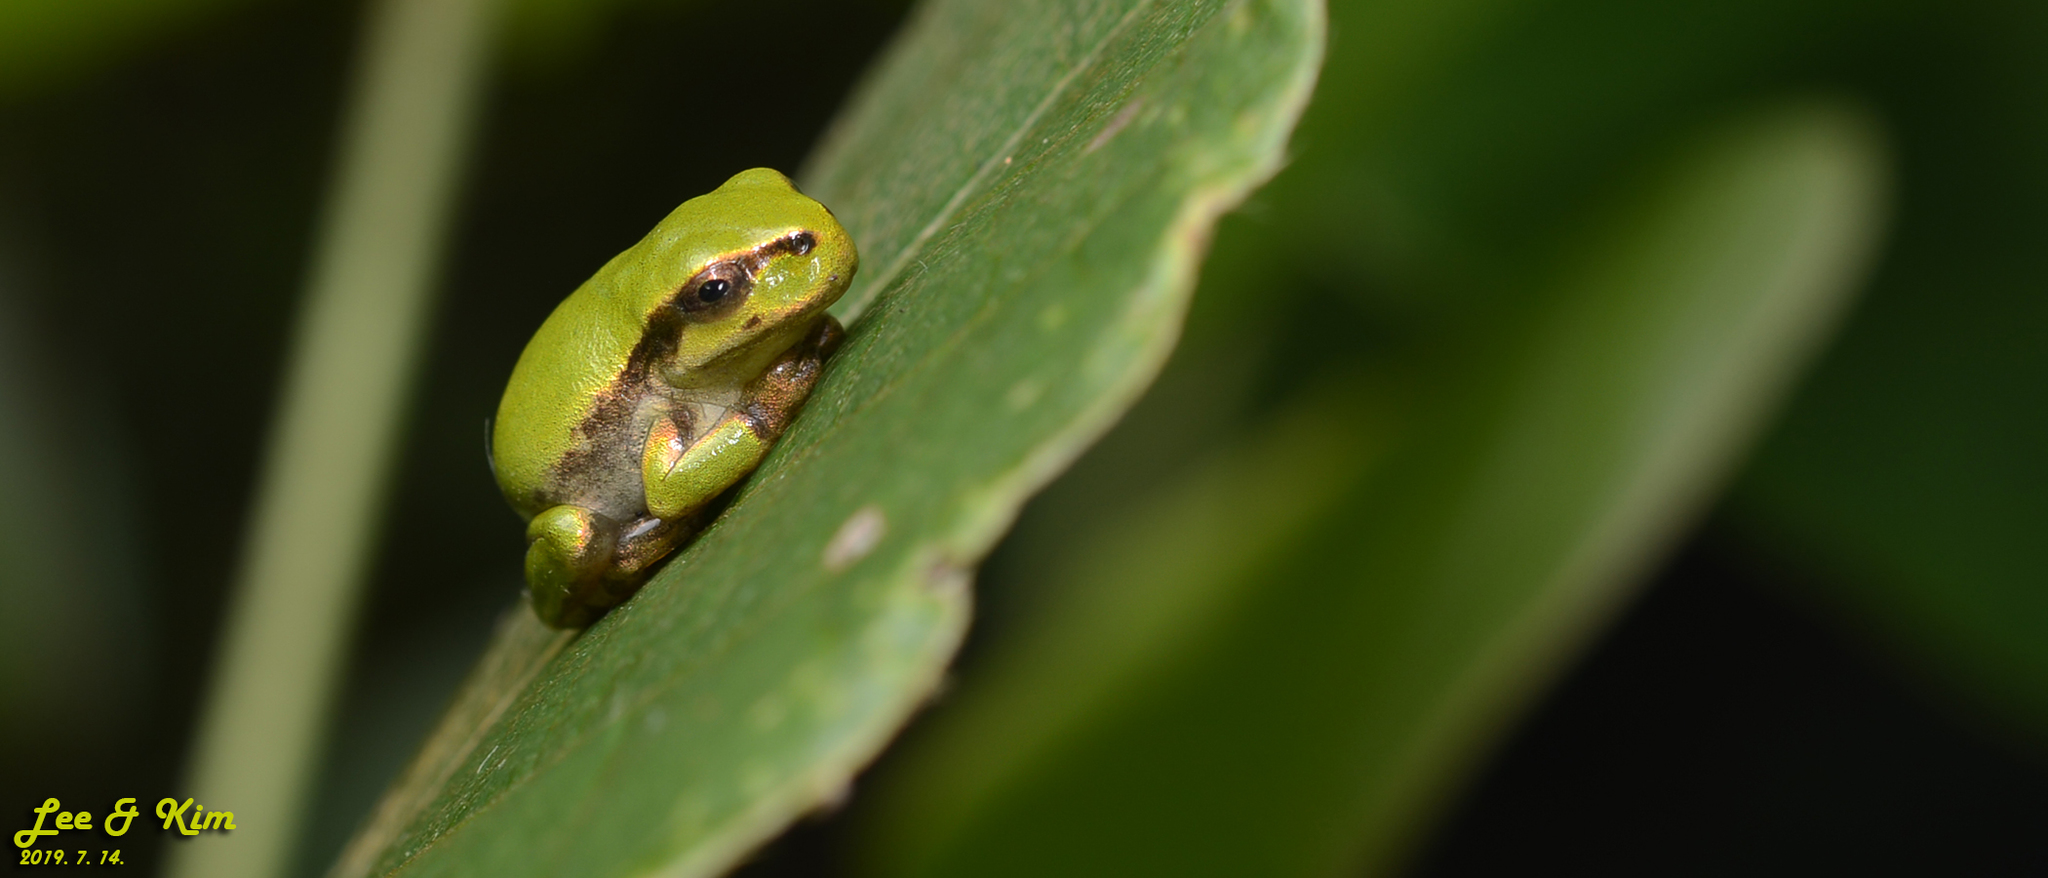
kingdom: Animalia
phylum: Chordata
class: Amphibia
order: Anura
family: Hylidae
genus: Dryophytes
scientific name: Dryophytes japonicus
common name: Japanese treefrog
